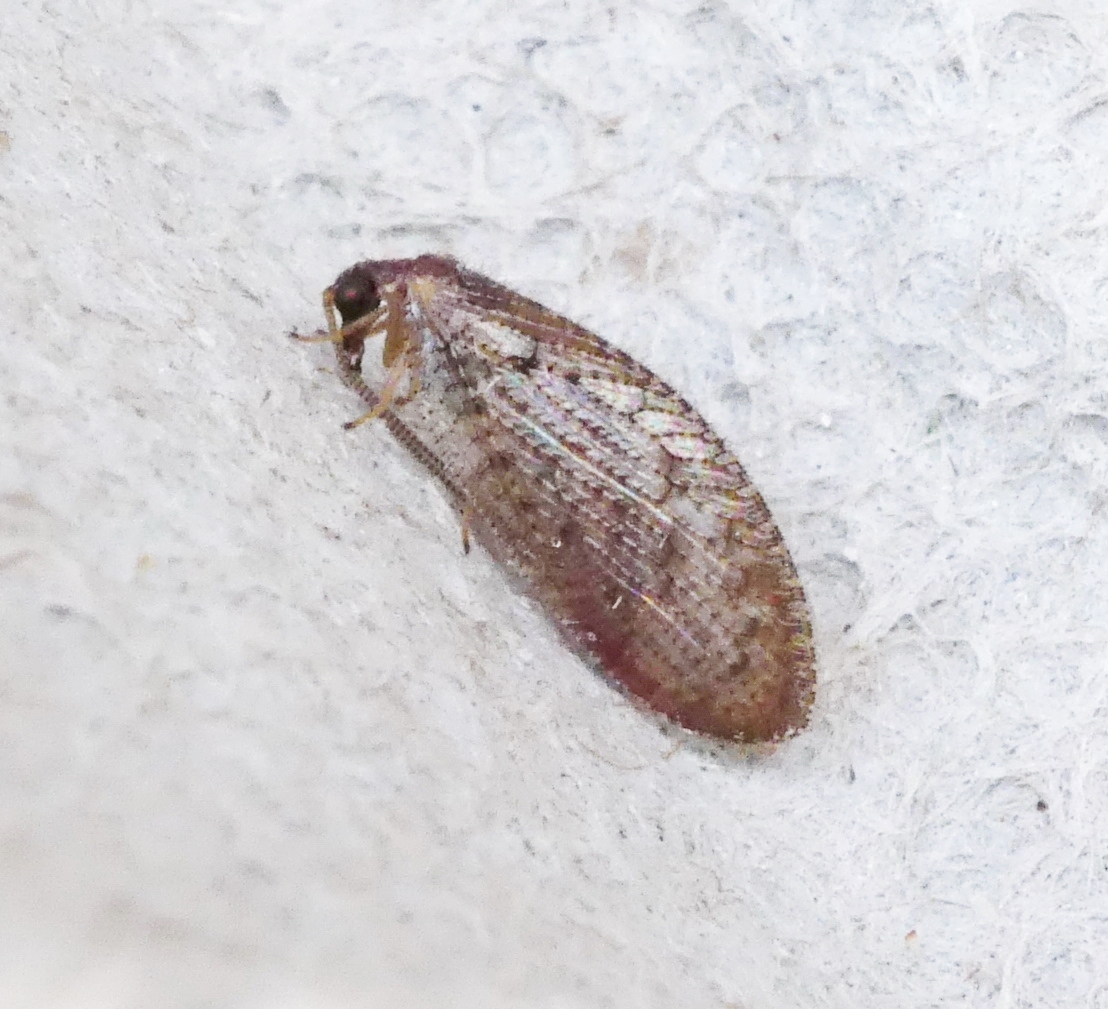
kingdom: Animalia
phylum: Arthropoda
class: Insecta
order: Neuroptera
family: Hemerobiidae
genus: Hemerobius
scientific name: Hemerobius stigma
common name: Brown pine lacewing
